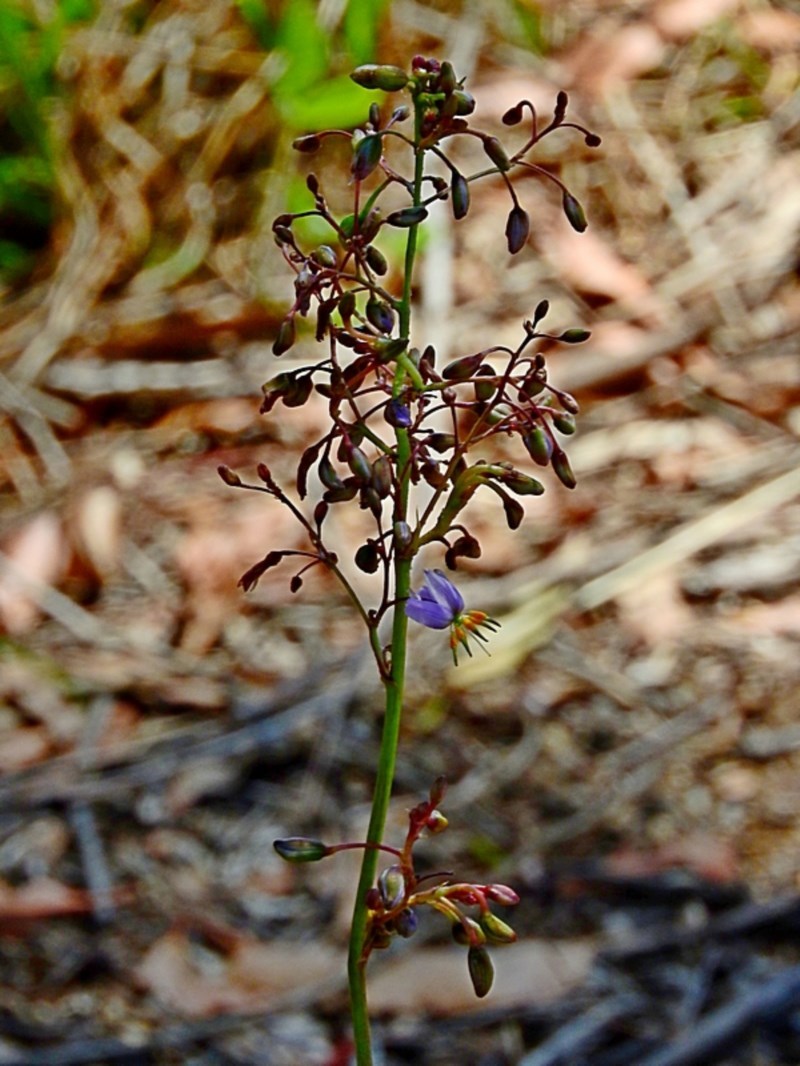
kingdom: Plantae
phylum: Tracheophyta
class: Liliopsida
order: Asparagales
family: Asphodelaceae
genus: Dianella
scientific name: Dianella longifolia
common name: Blue flax-lily
